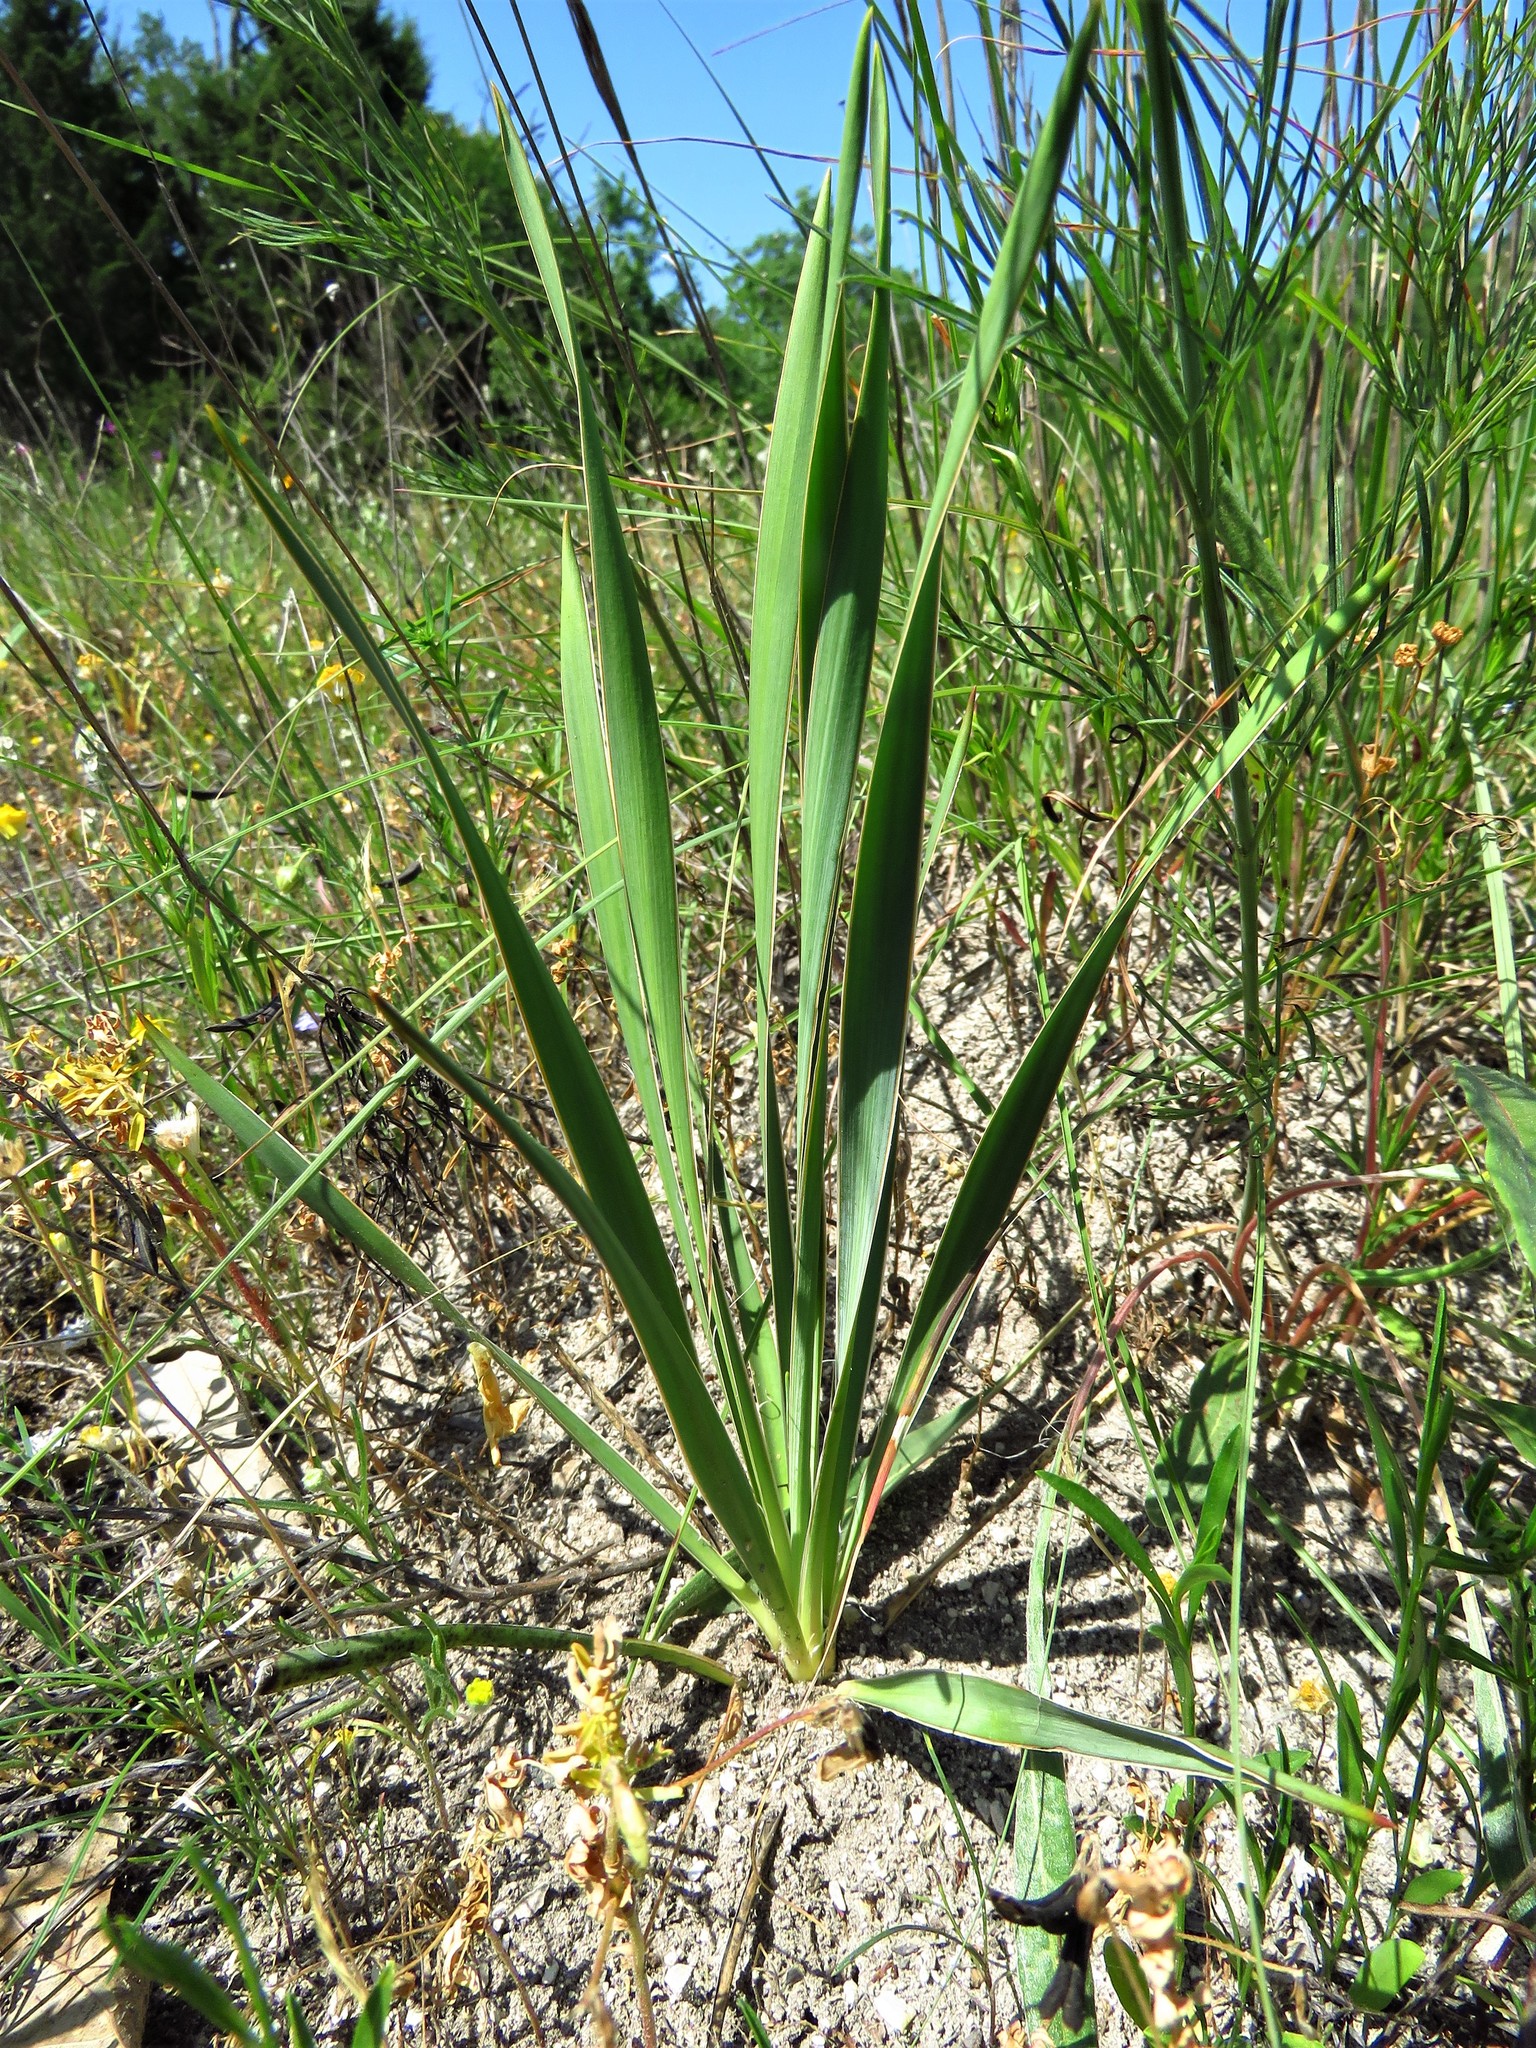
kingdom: Plantae
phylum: Tracheophyta
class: Liliopsida
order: Asparagales
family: Asparagaceae
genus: Yucca
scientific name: Yucca arkansana
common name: Arkansas yucca
